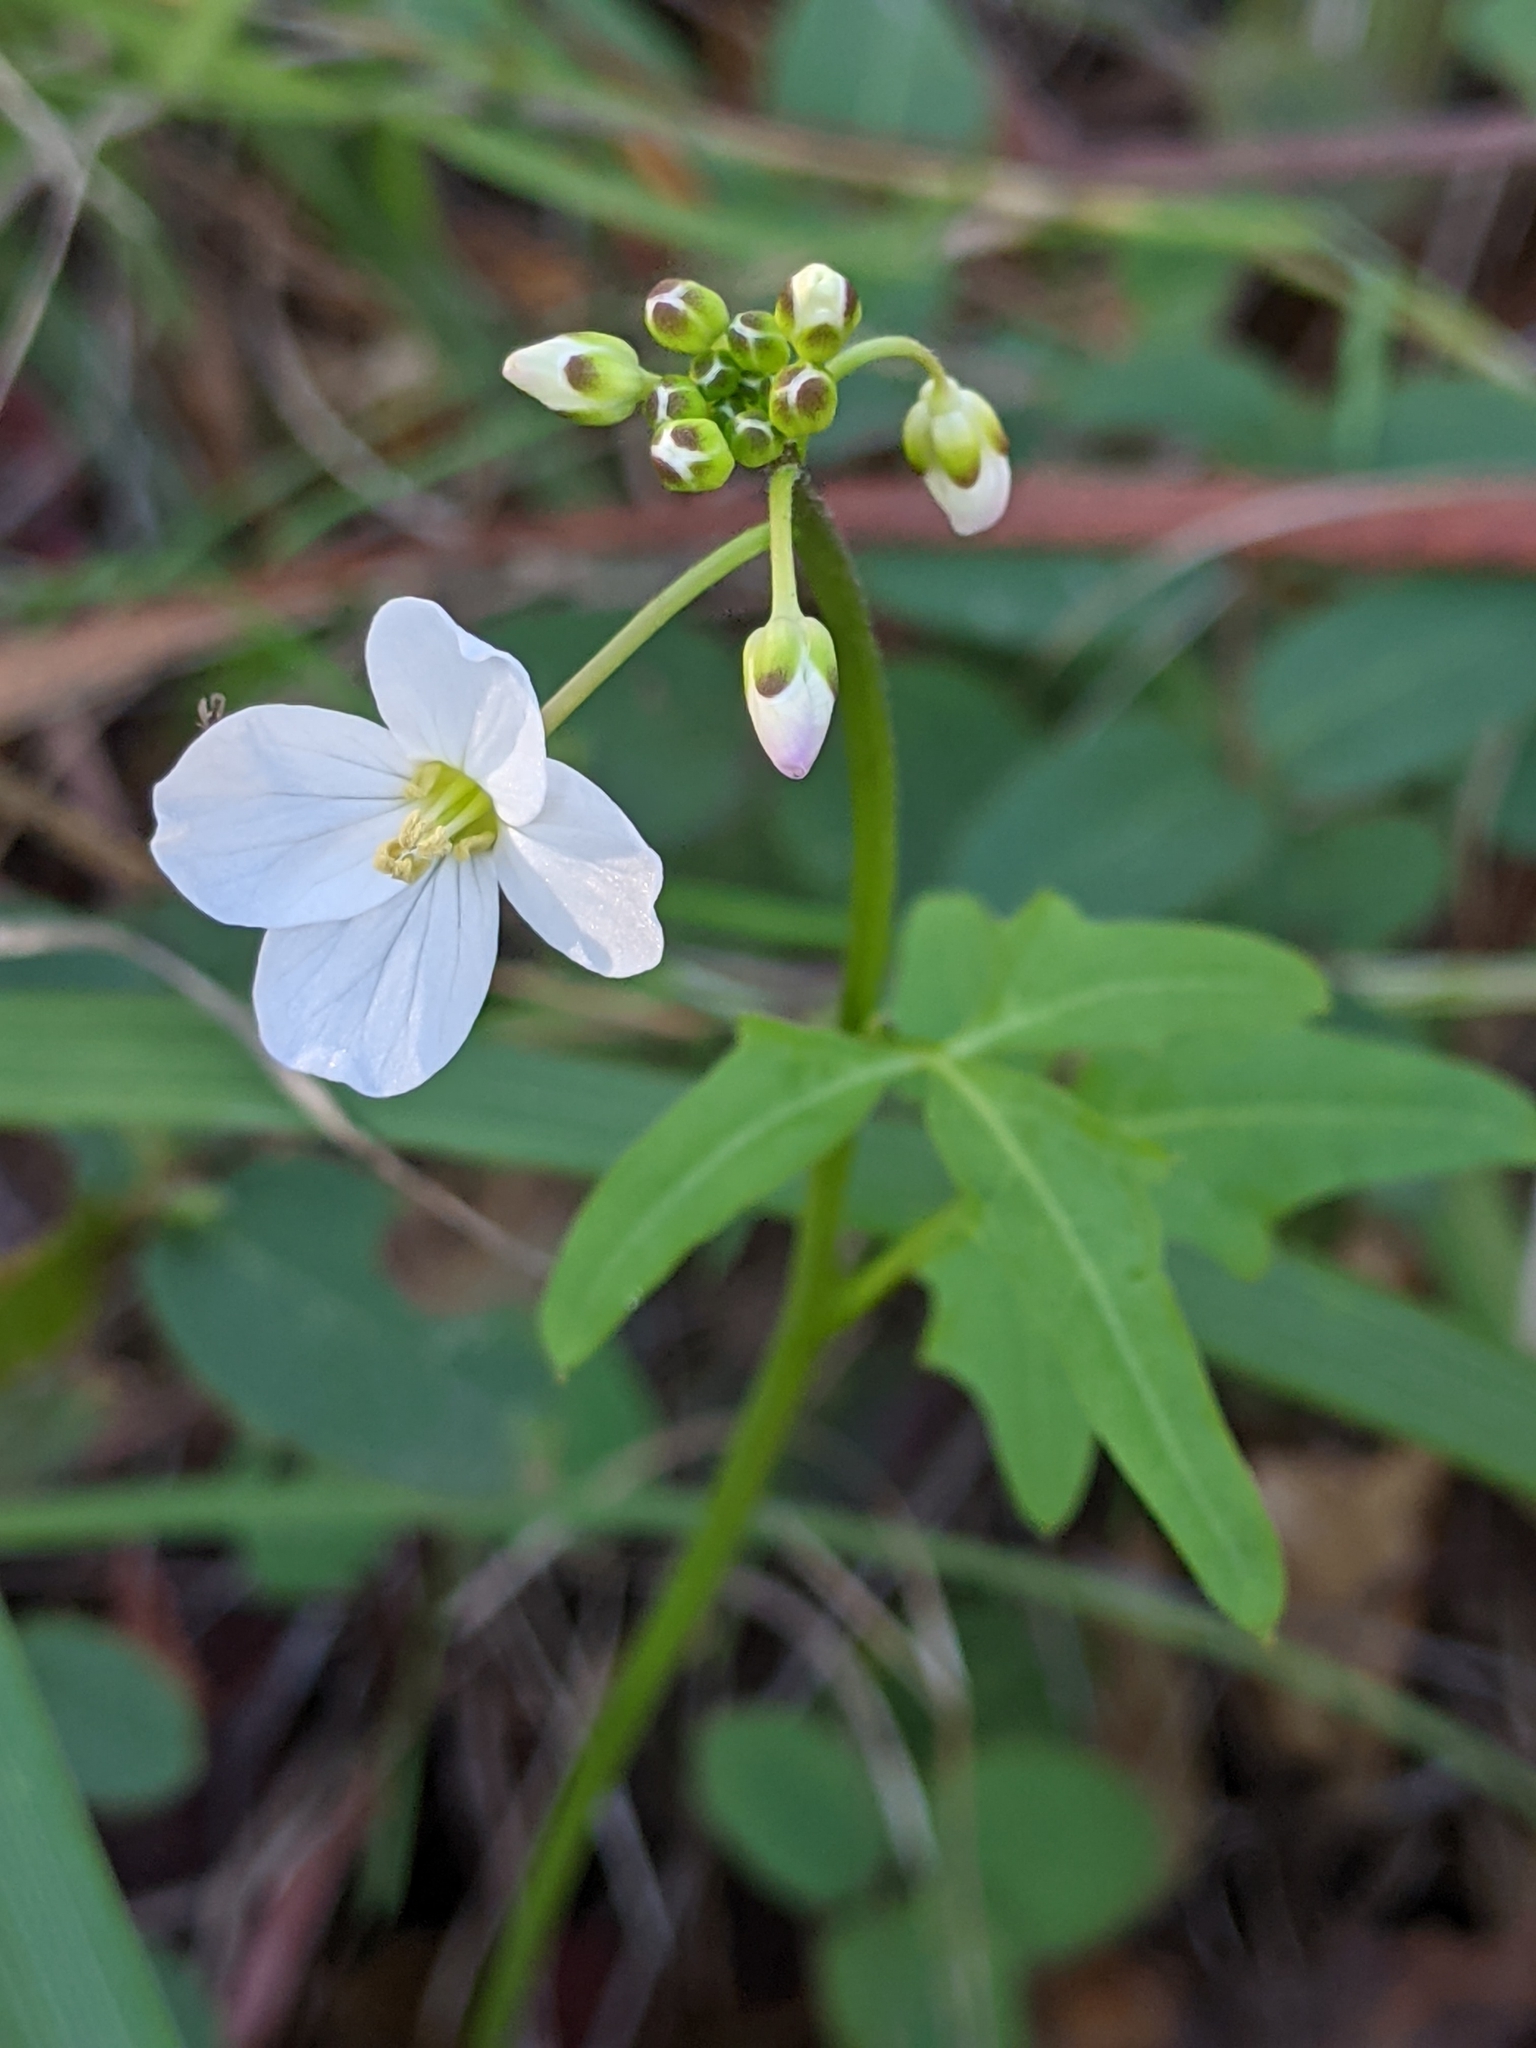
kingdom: Plantae
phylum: Tracheophyta
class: Magnoliopsida
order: Brassicales
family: Brassicaceae
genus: Cardamine
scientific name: Cardamine californica
